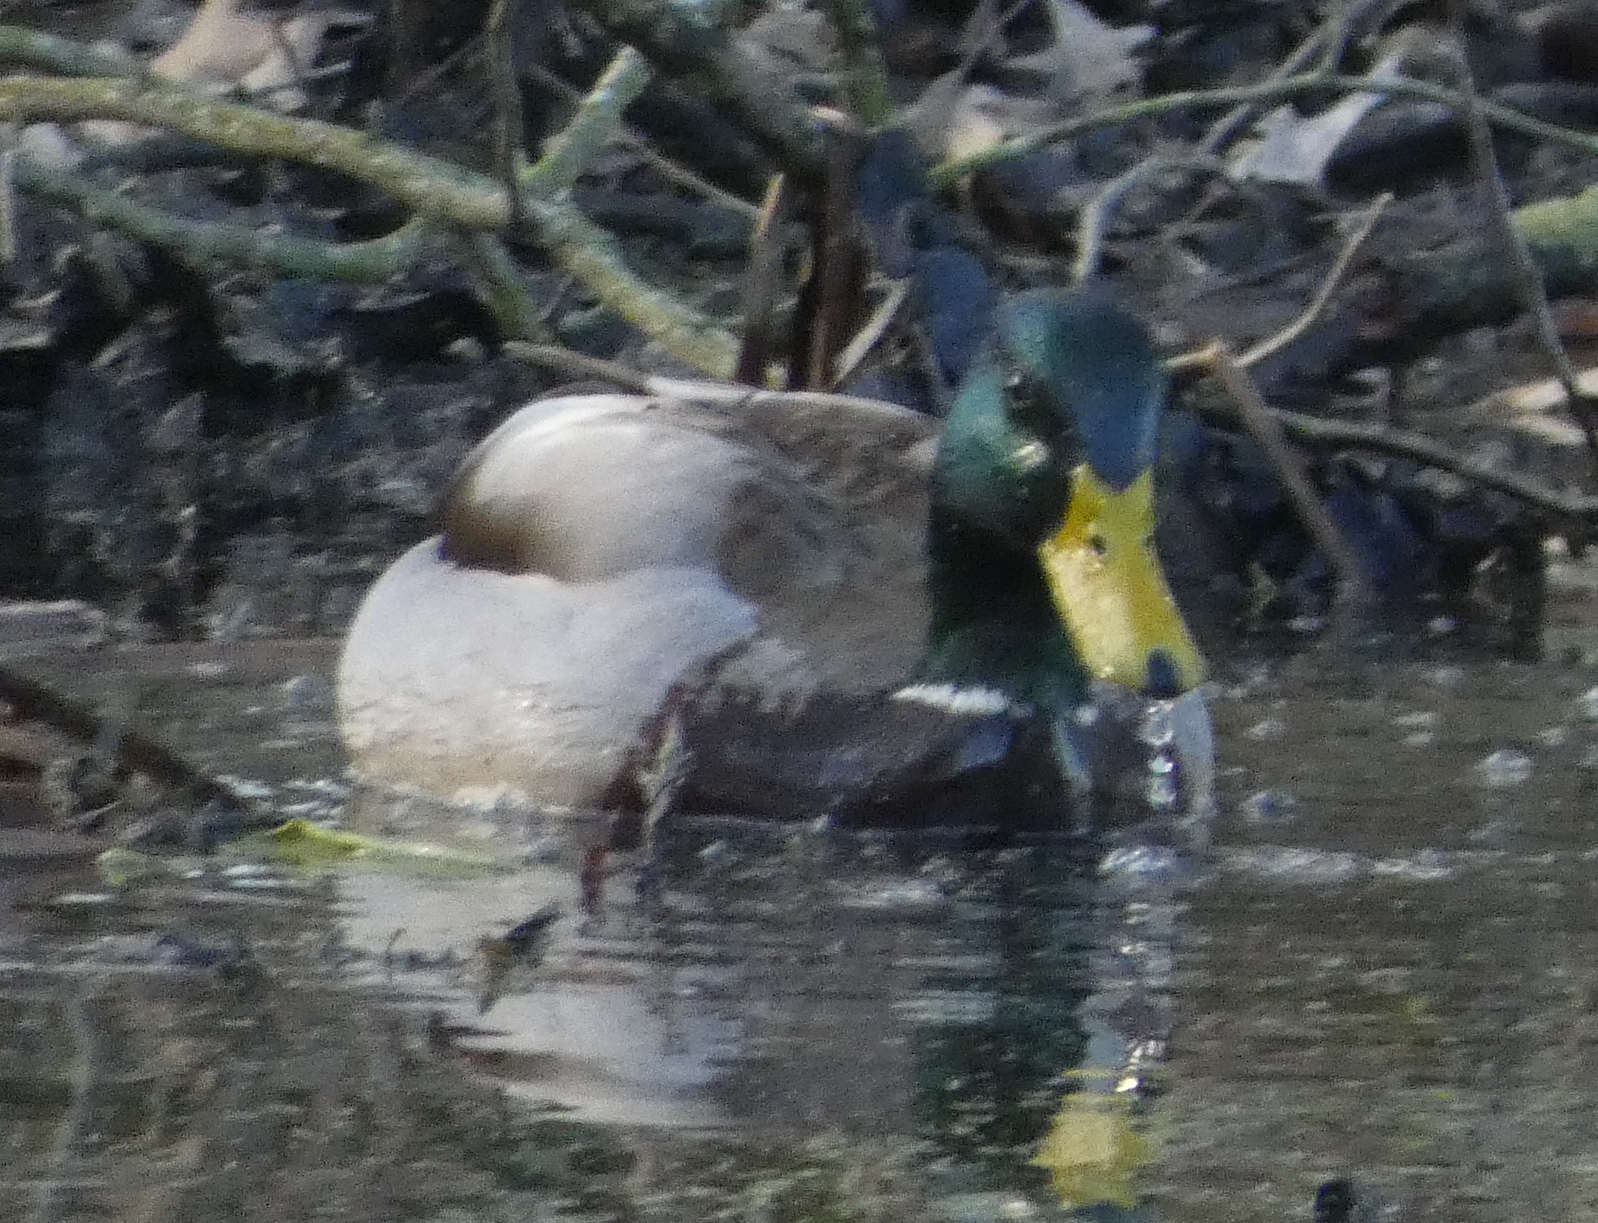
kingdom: Animalia
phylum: Chordata
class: Aves
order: Anseriformes
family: Anatidae
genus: Anas
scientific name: Anas platyrhynchos
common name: Mallard
